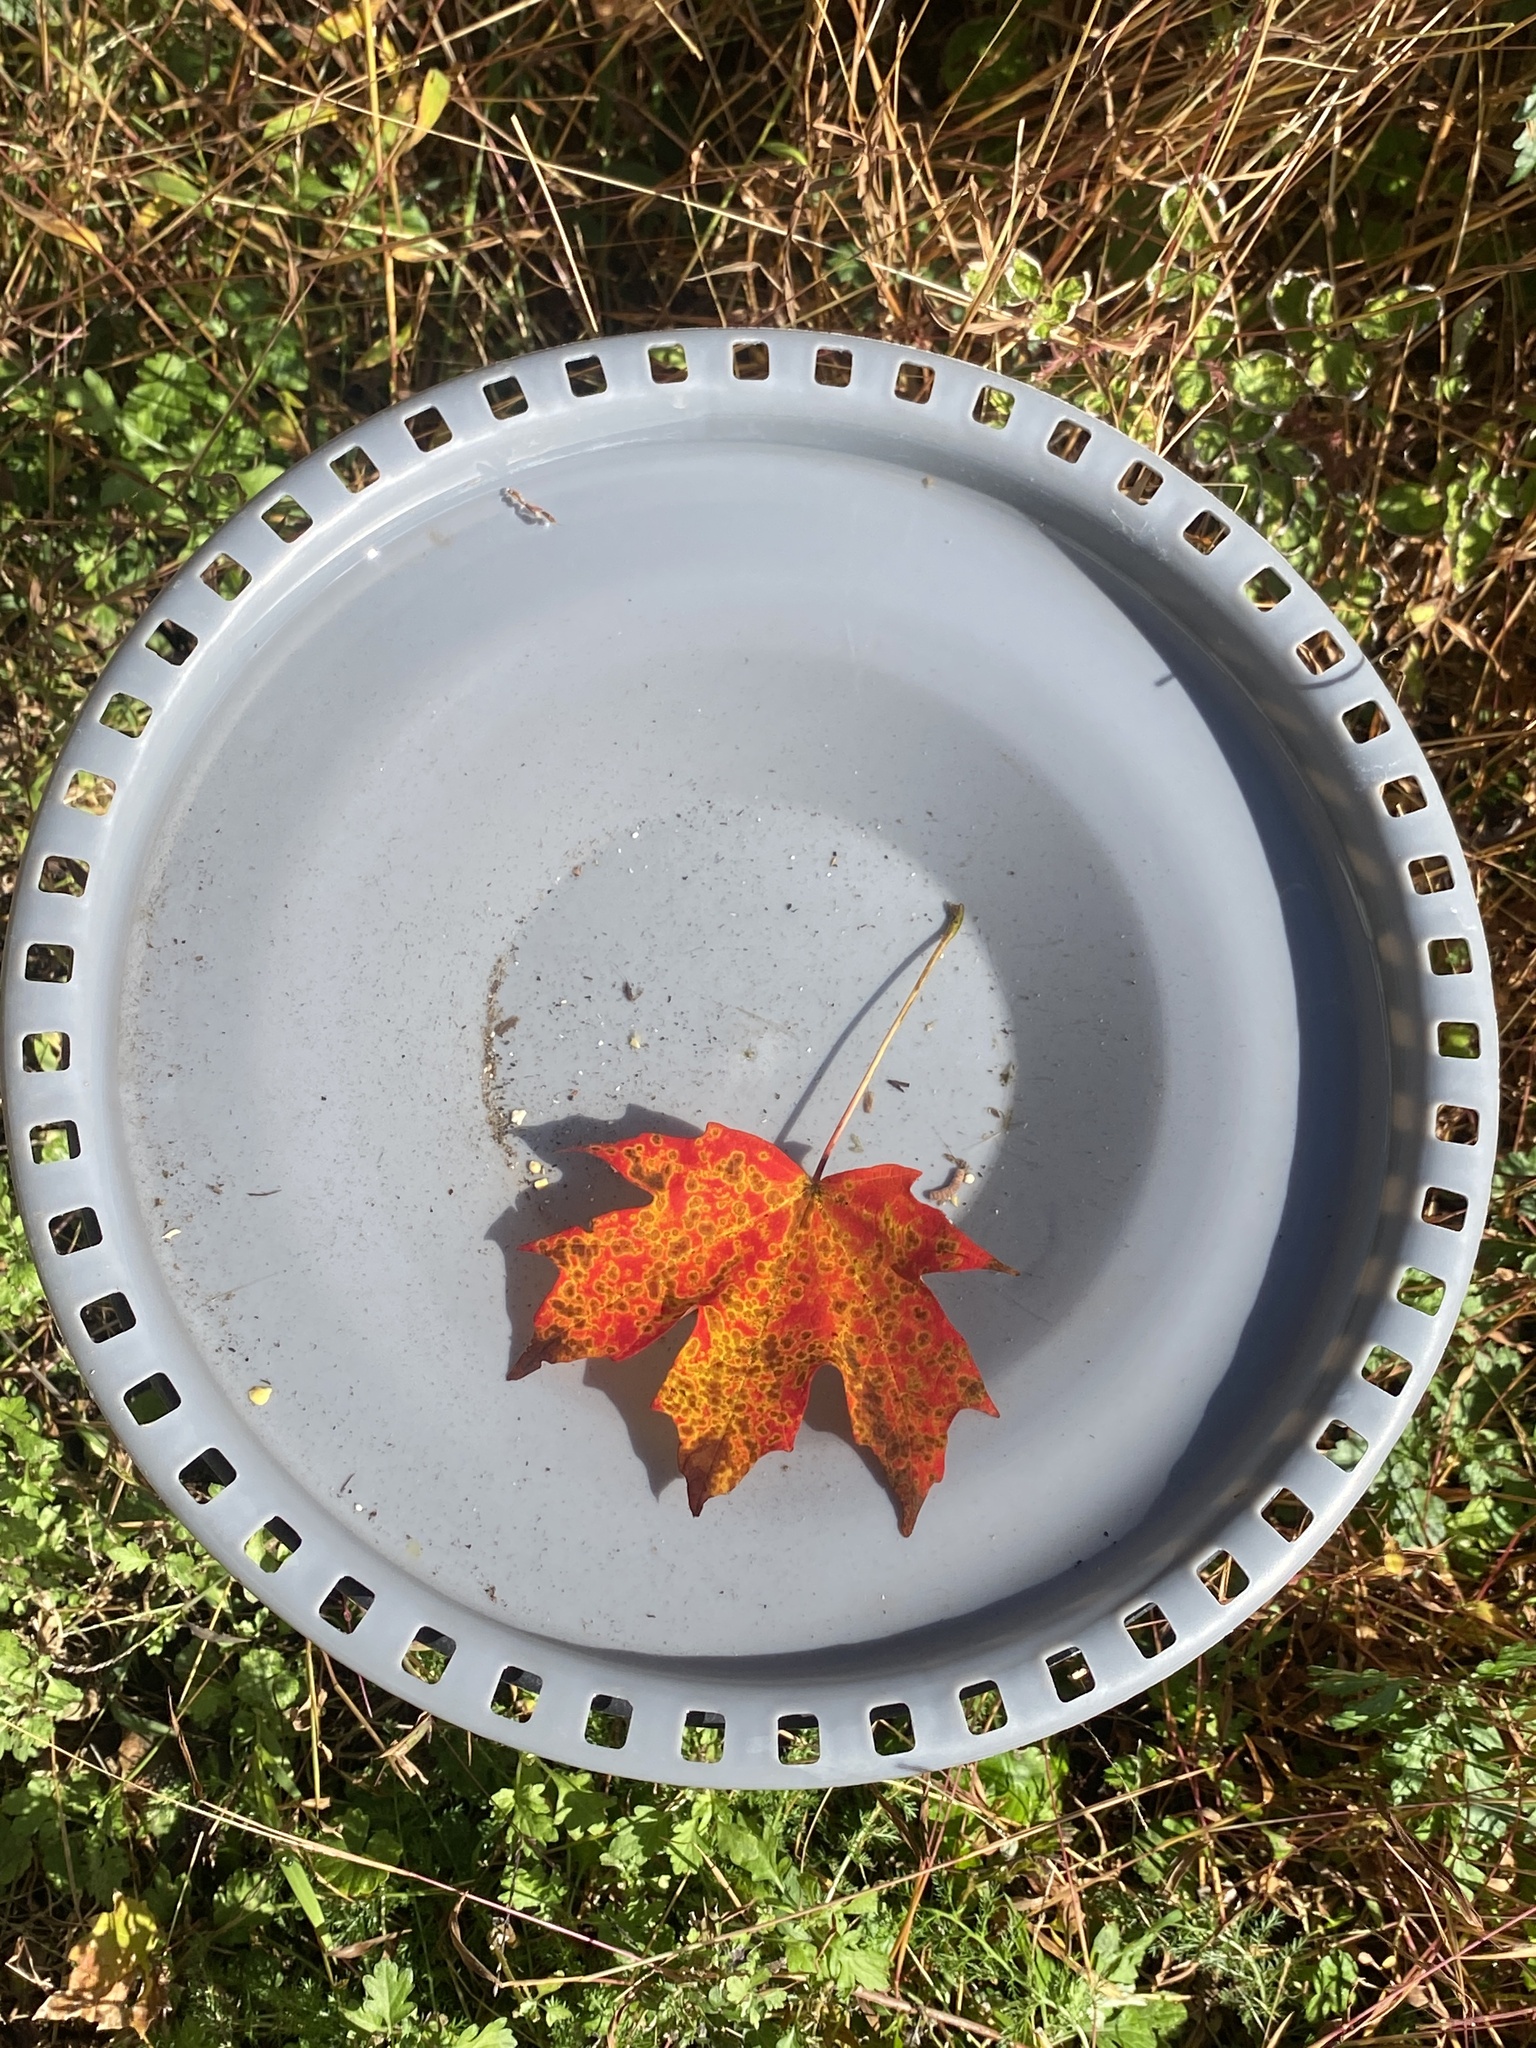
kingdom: Plantae
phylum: Tracheophyta
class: Magnoliopsida
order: Sapindales
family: Sapindaceae
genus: Acer
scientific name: Acer saccharum
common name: Sugar maple
